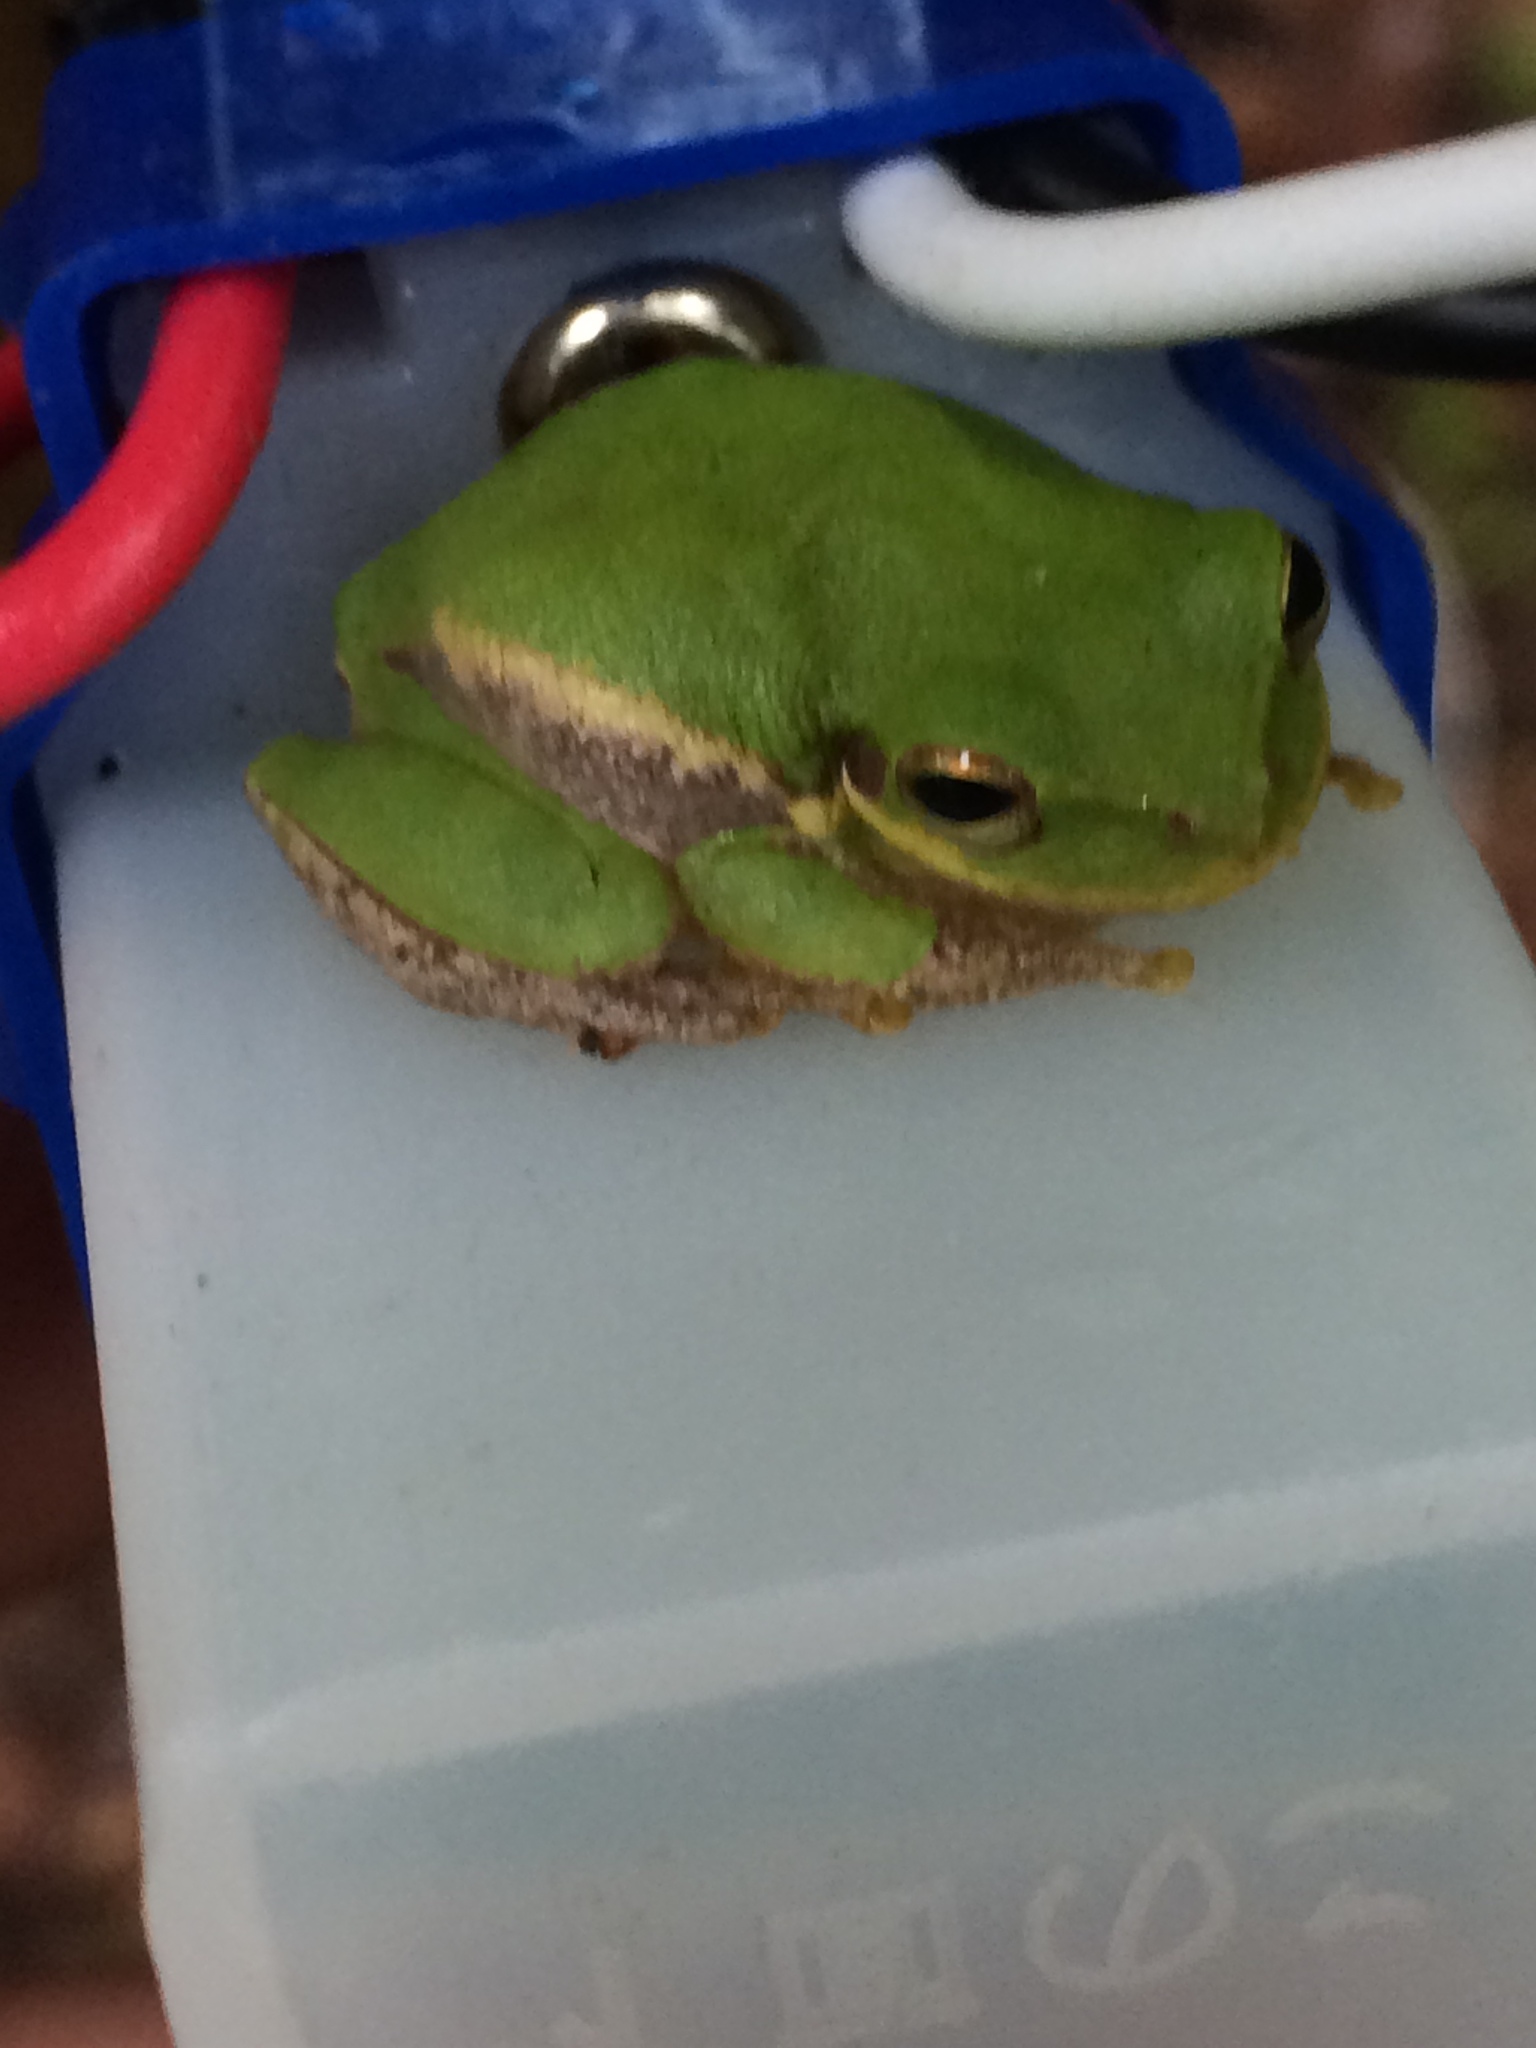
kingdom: Animalia
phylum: Chordata
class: Amphibia
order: Anura
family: Hylidae
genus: Dryophytes
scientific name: Dryophytes squirellus
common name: Squirrel treefrog
